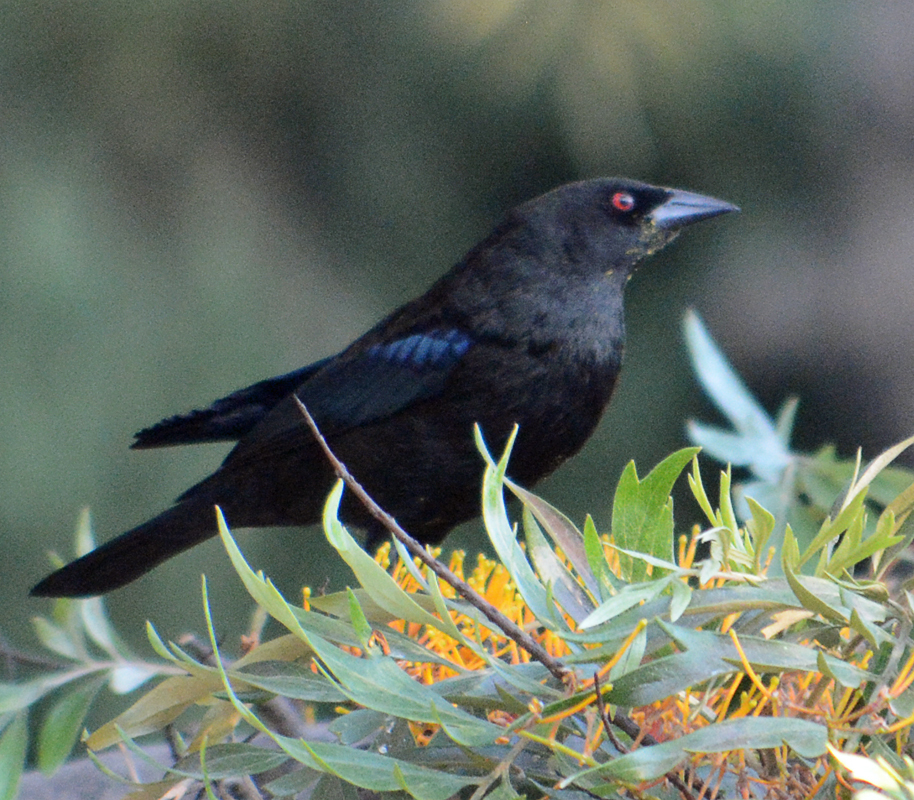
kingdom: Animalia
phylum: Chordata
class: Aves
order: Passeriformes
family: Icteridae
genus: Molothrus
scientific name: Molothrus aeneus
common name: Bronzed cowbird
